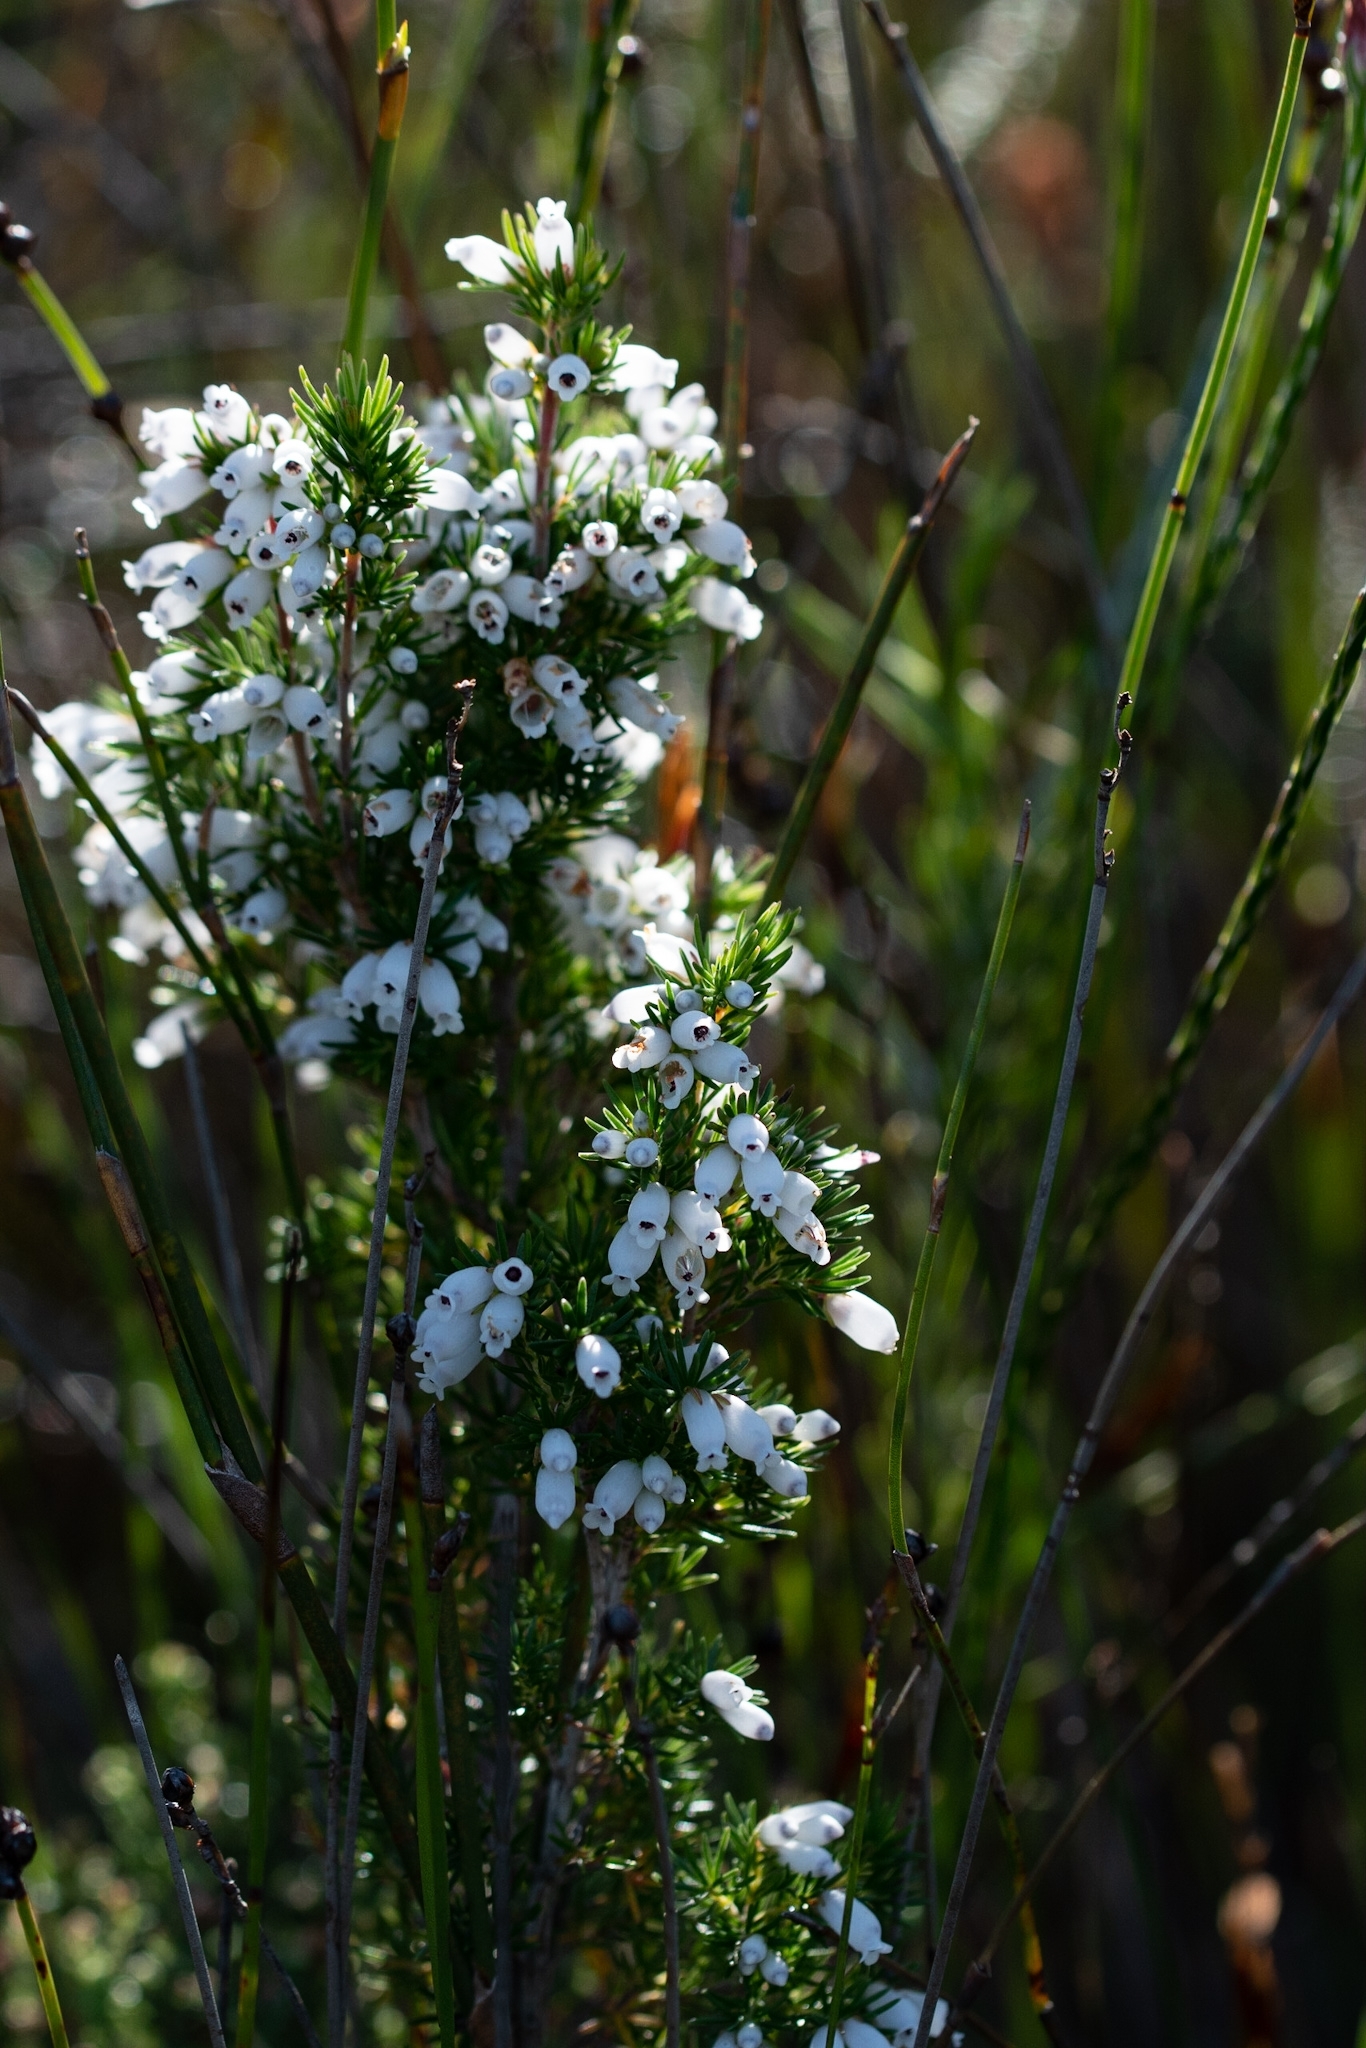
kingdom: Plantae
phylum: Tracheophyta
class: Magnoliopsida
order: Ericales
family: Ericaceae
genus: Erica
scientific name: Erica sitiens
